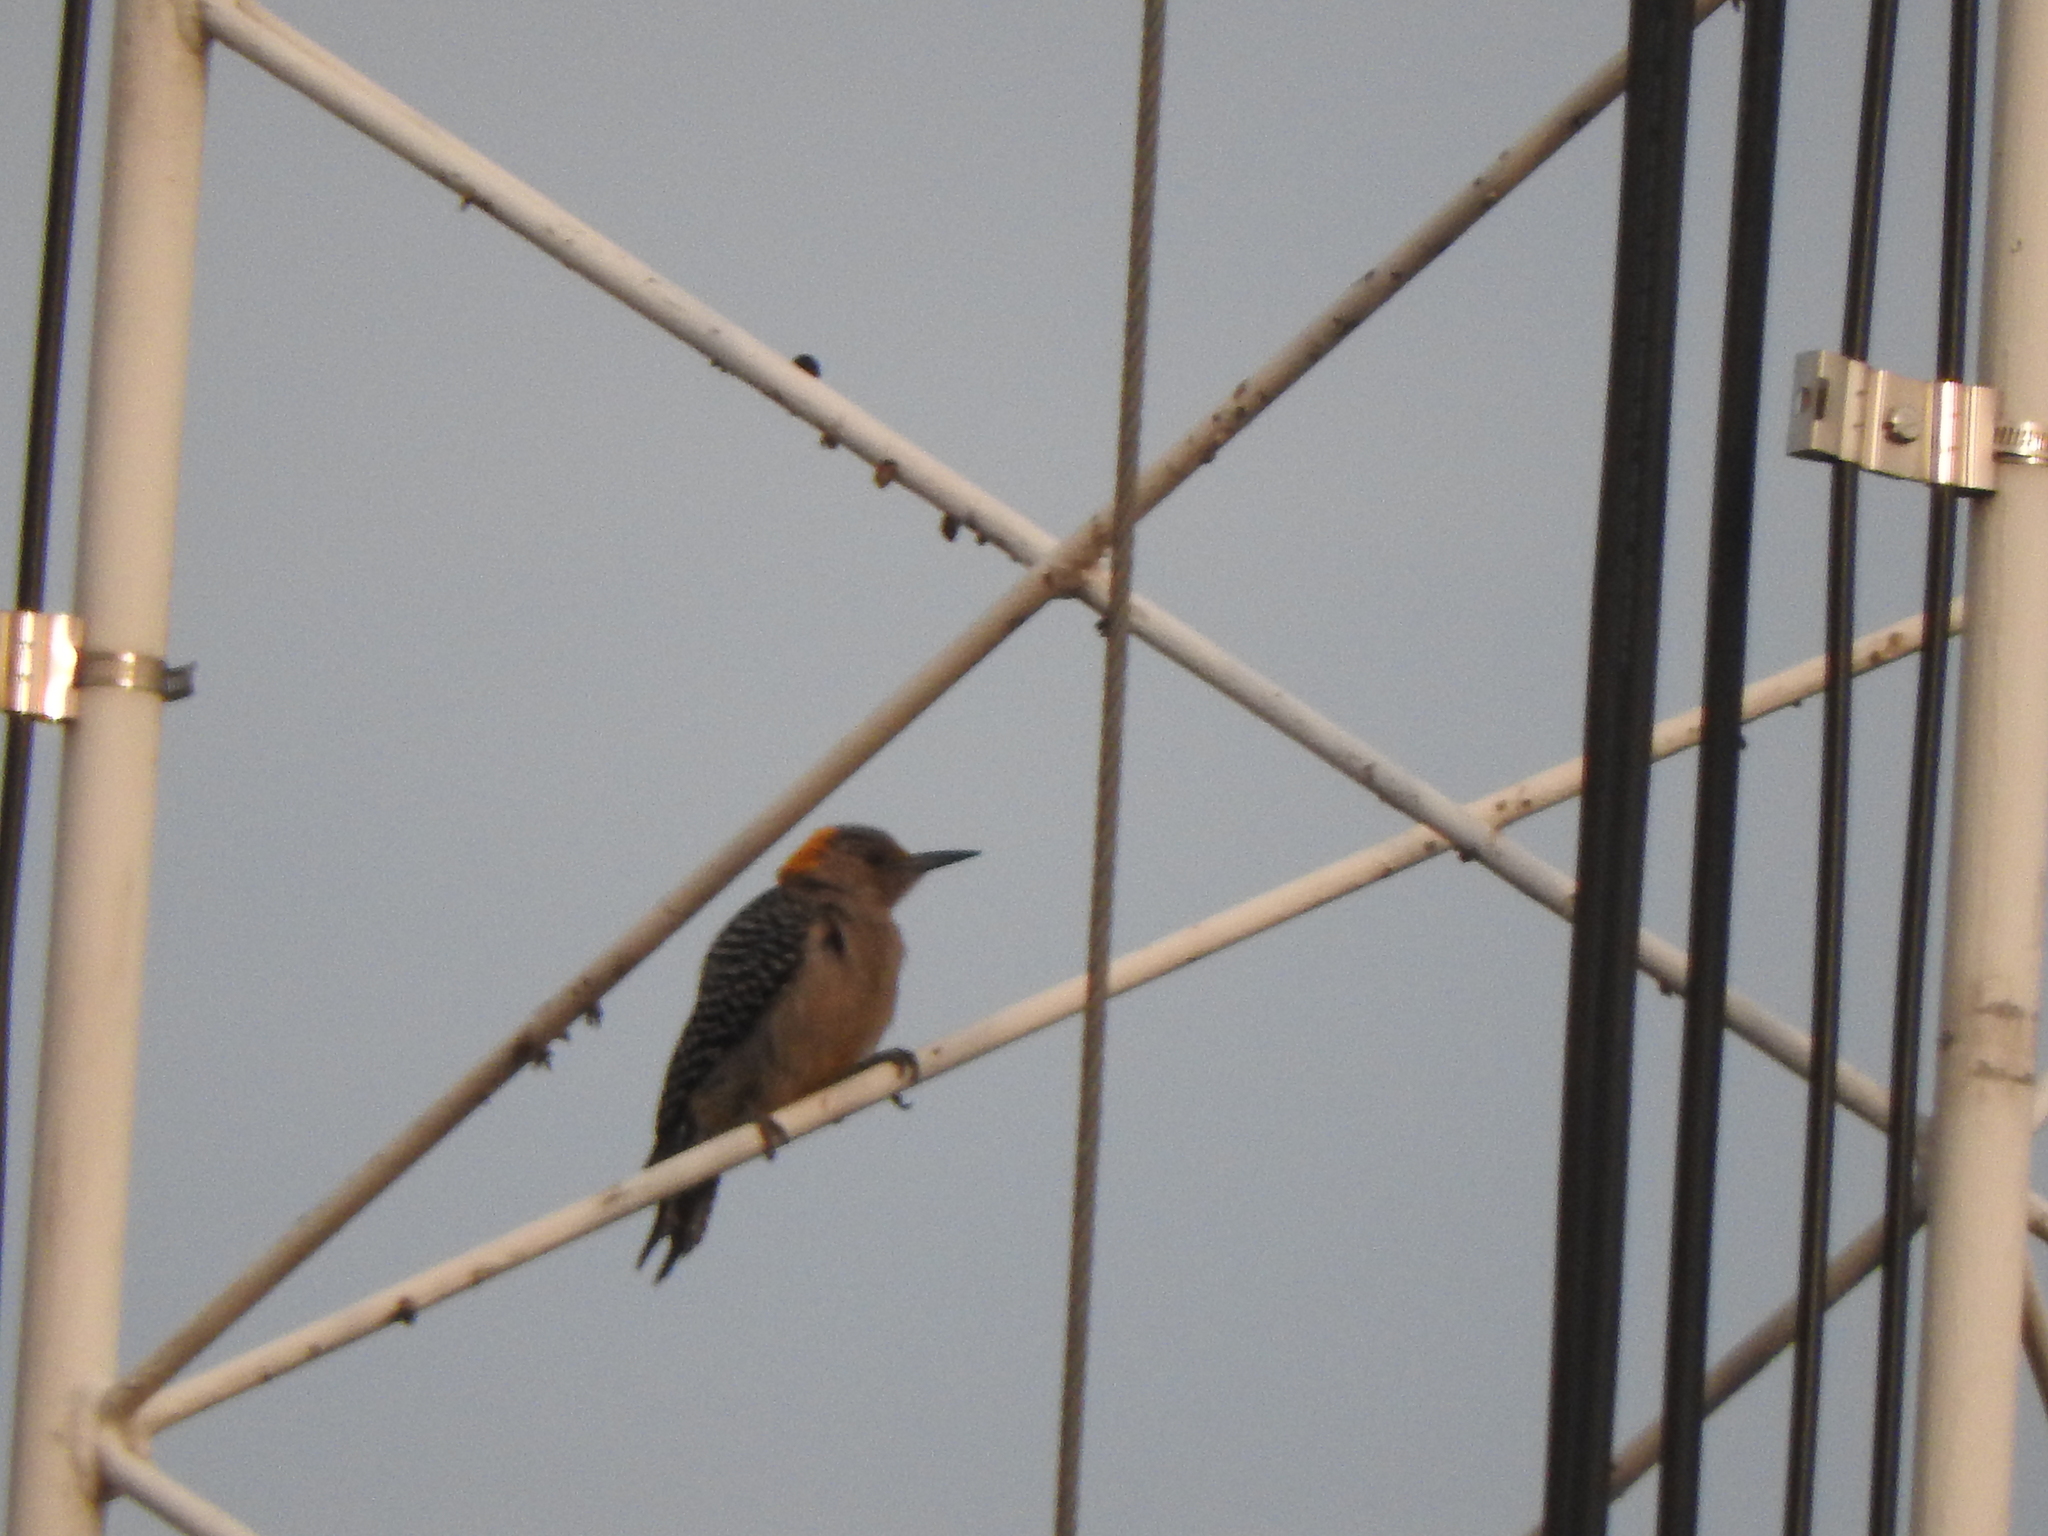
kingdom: Animalia
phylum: Chordata
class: Aves
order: Piciformes
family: Picidae
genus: Melanerpes
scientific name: Melanerpes aurifrons
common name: Golden-fronted woodpecker
